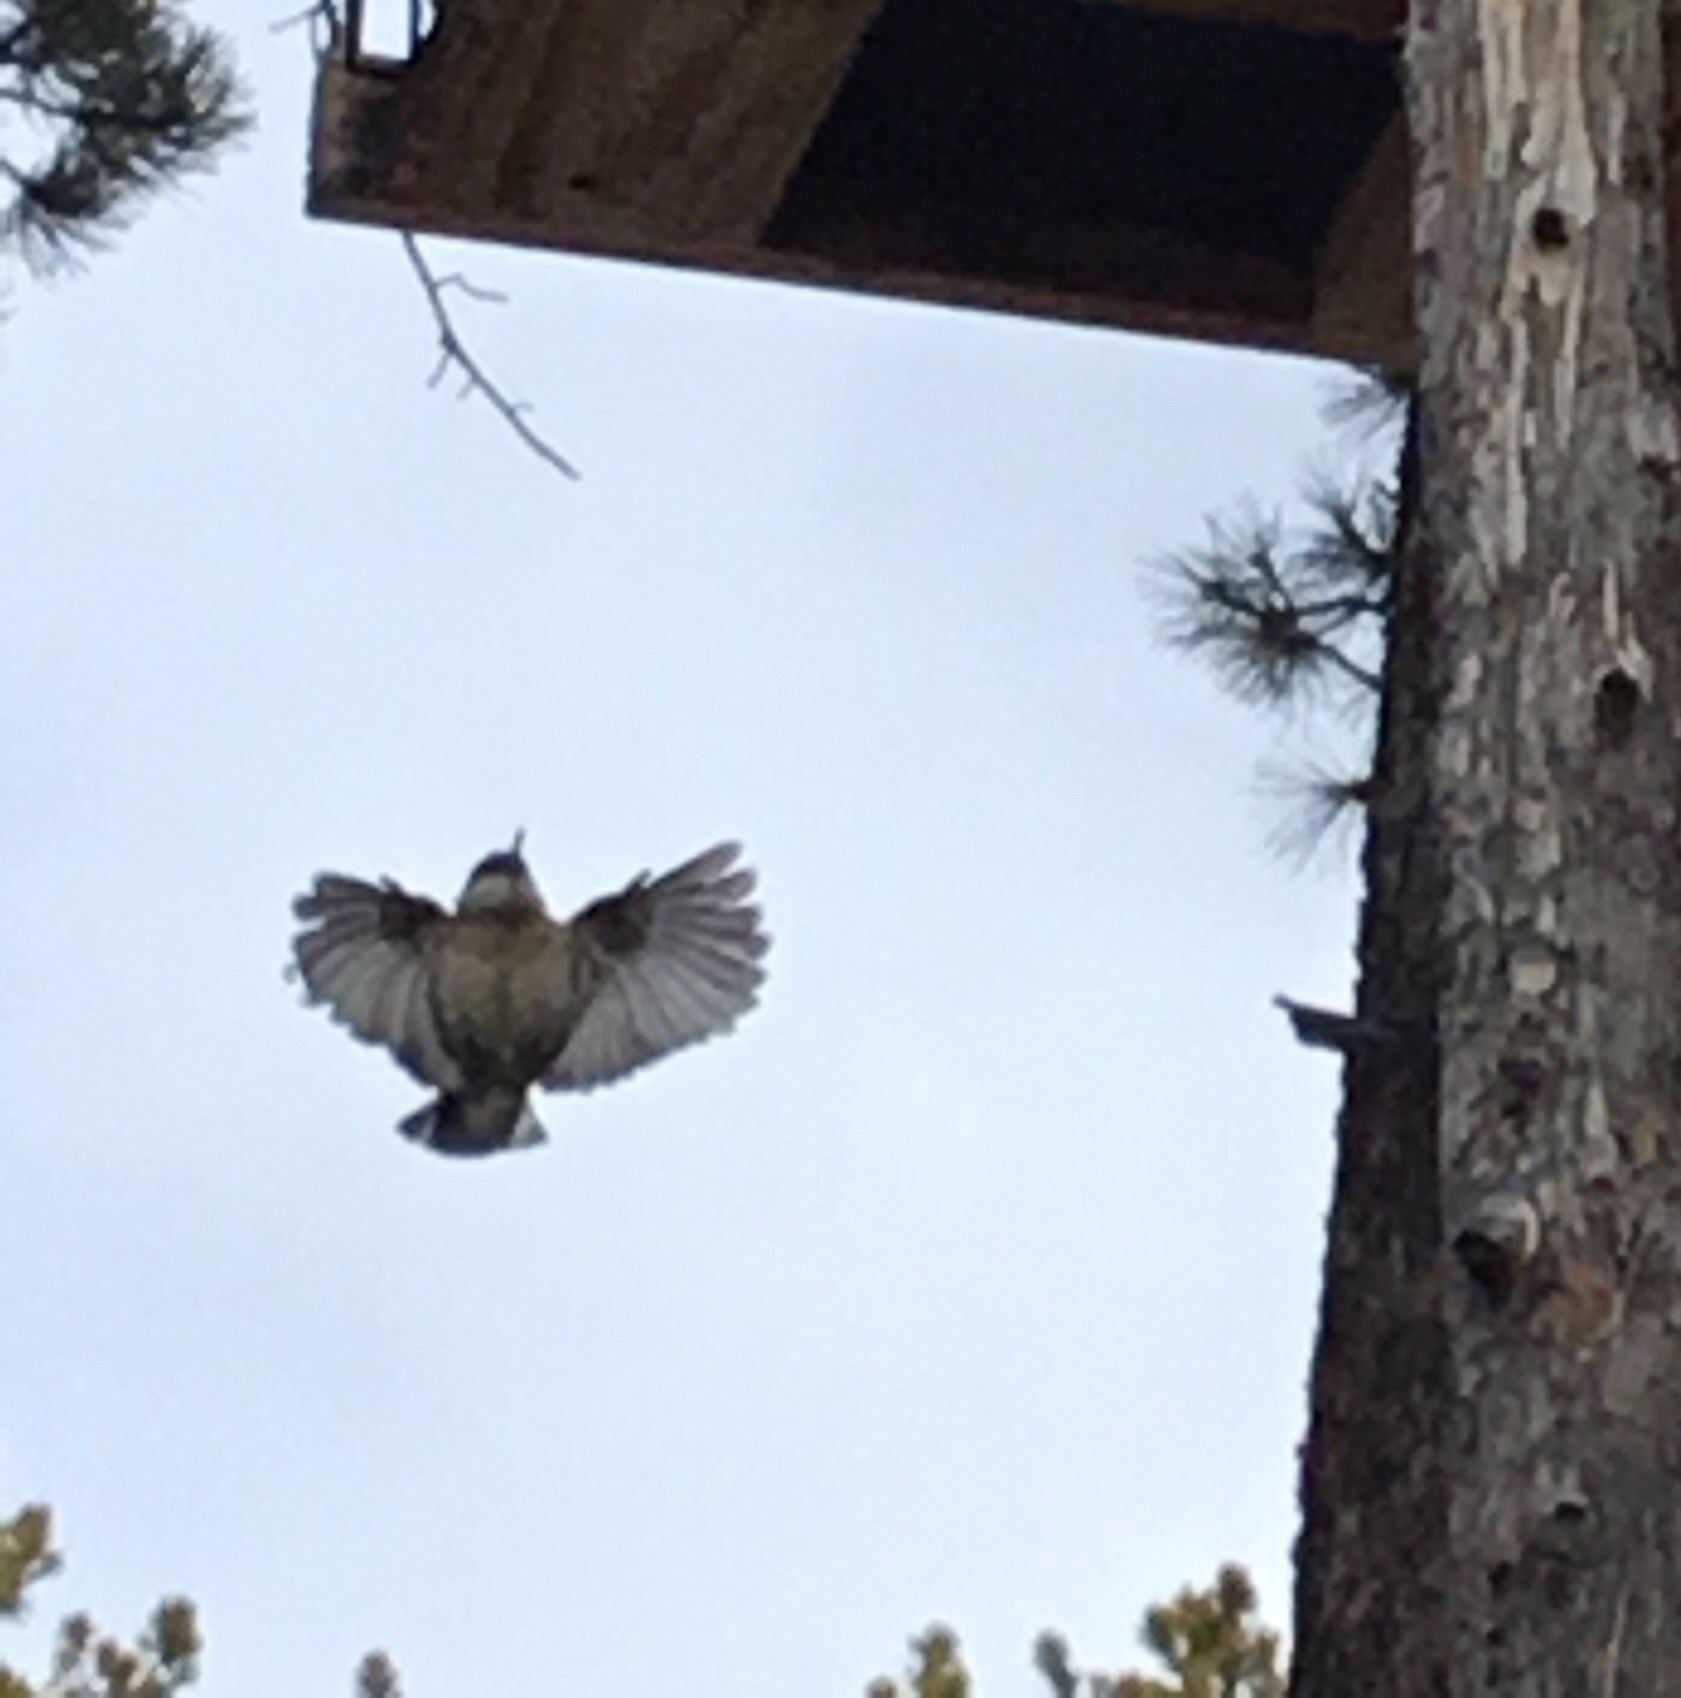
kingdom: Animalia
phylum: Chordata
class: Aves
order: Passeriformes
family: Sittidae
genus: Sitta
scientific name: Sitta pygmaea
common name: Pygmy nuthatch
